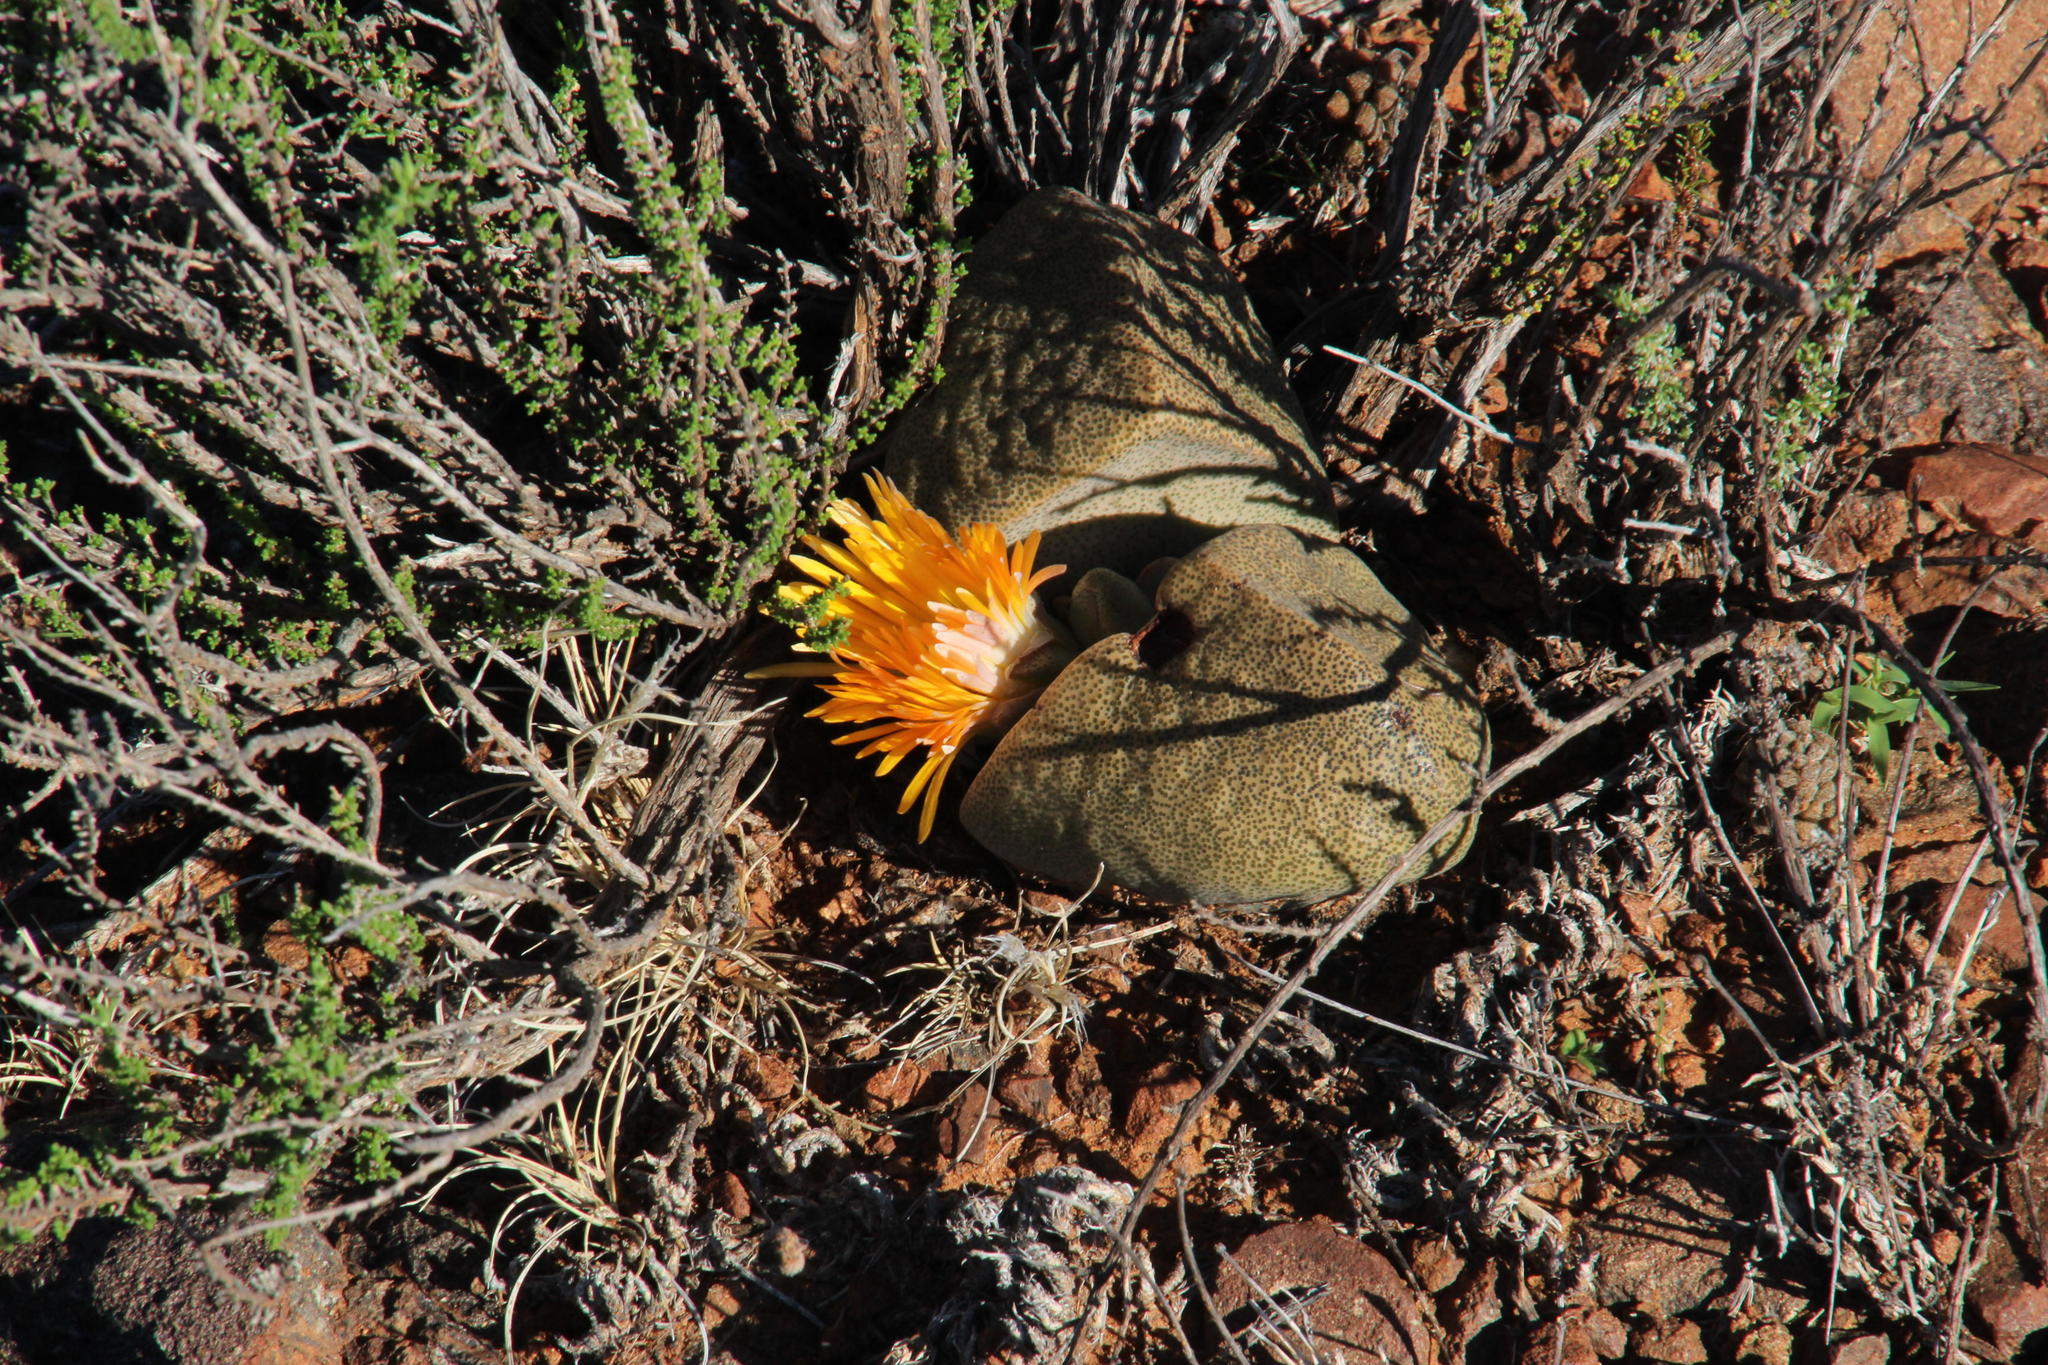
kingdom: Plantae
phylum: Tracheophyta
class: Magnoliopsida
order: Caryophyllales
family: Aizoaceae
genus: Pleiospilos
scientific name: Pleiospilos bolusii
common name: African living-rock
